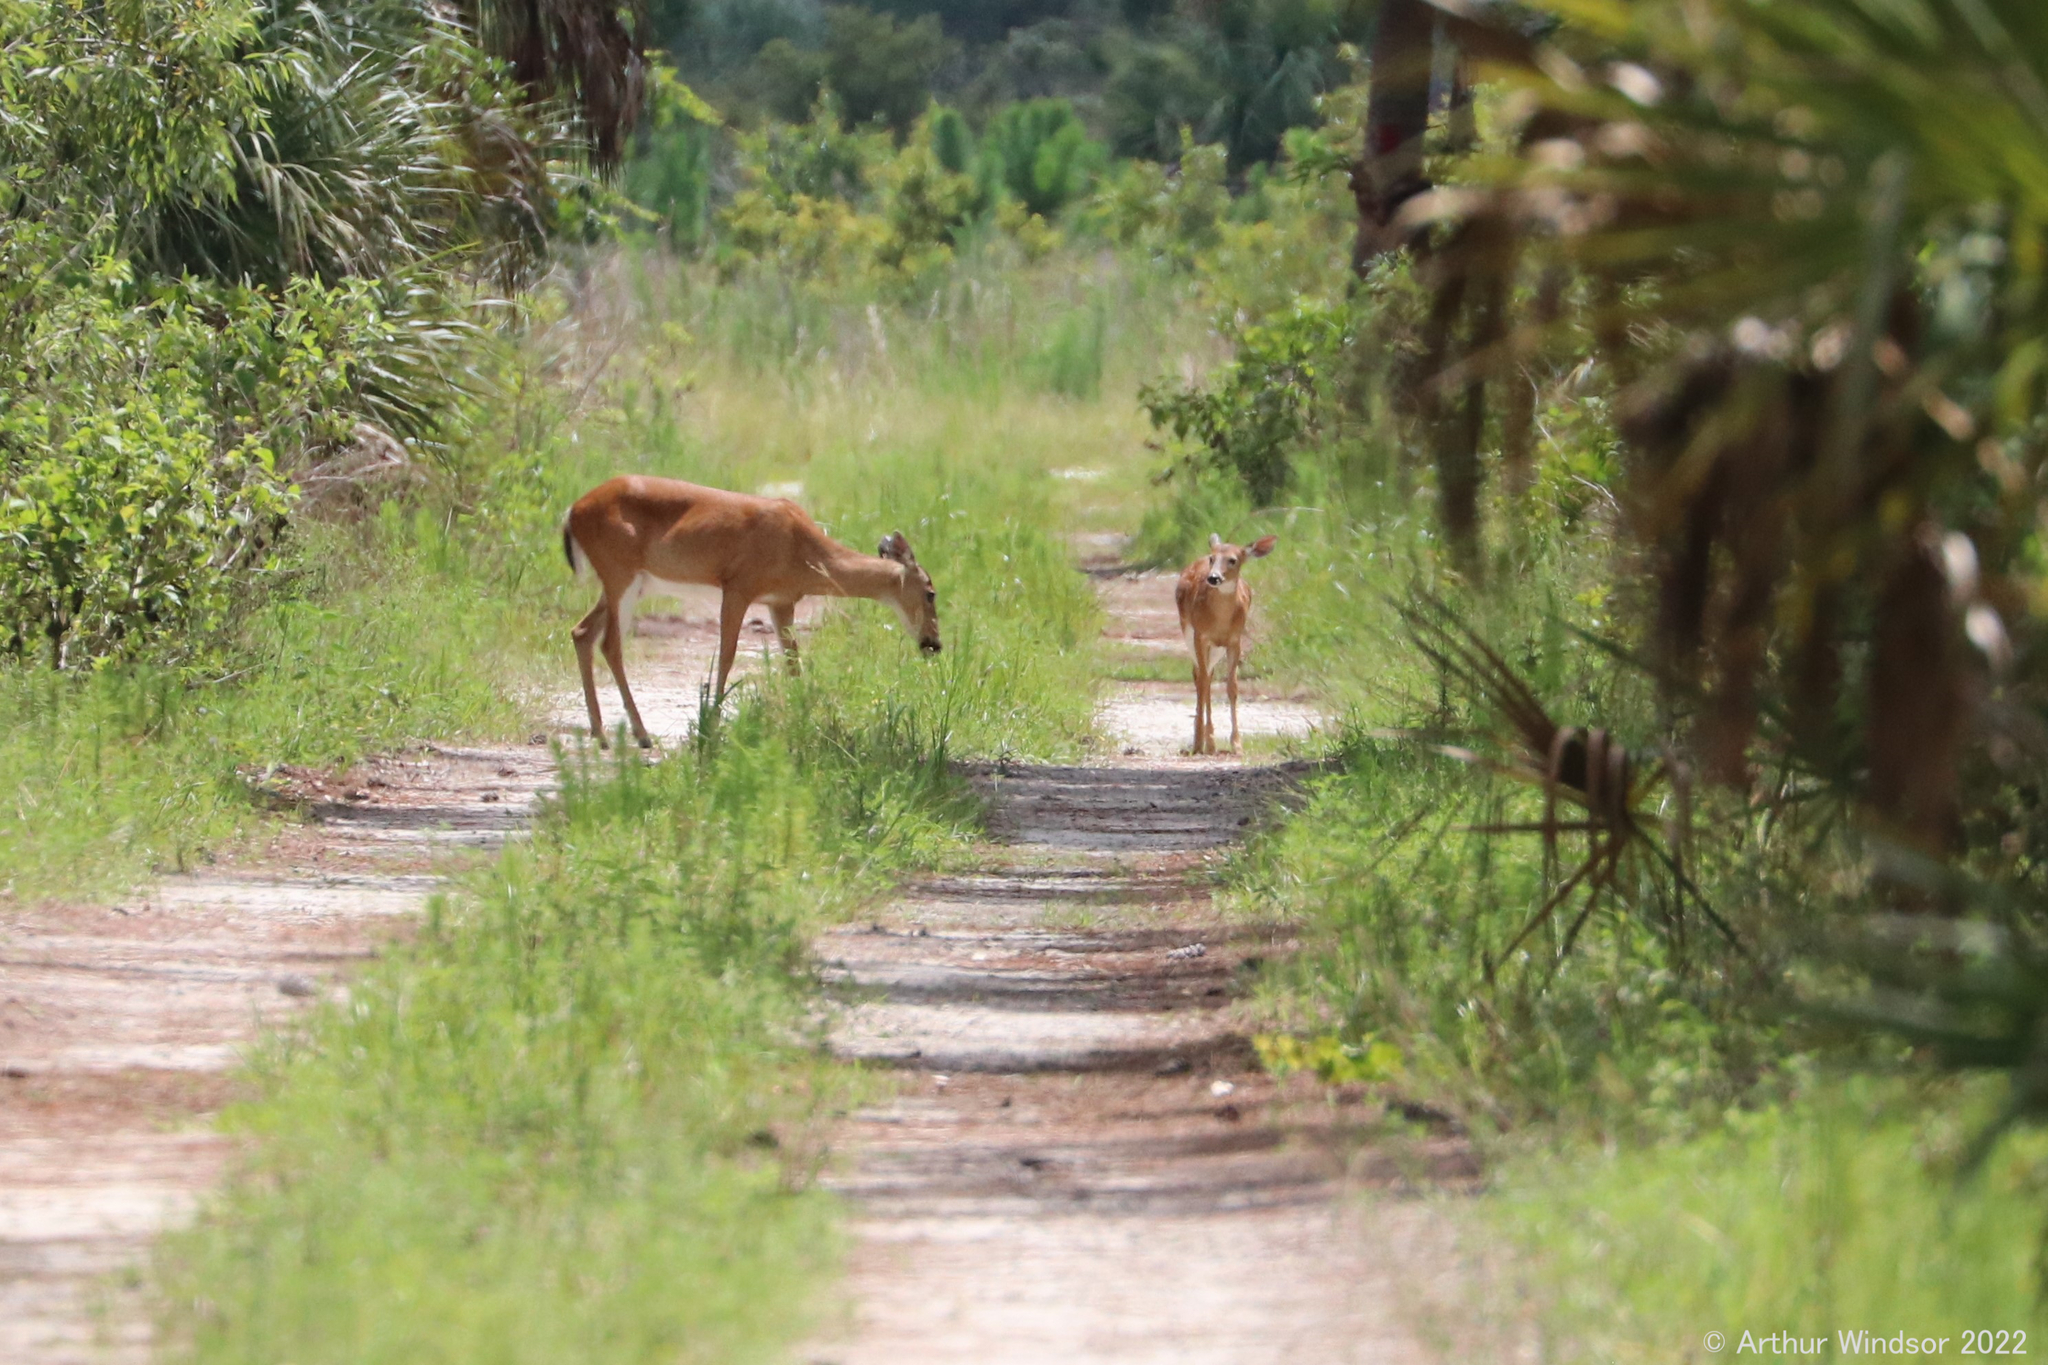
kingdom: Animalia
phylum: Chordata
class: Mammalia
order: Artiodactyla
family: Cervidae
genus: Odocoileus
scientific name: Odocoileus virginianus
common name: White-tailed deer
